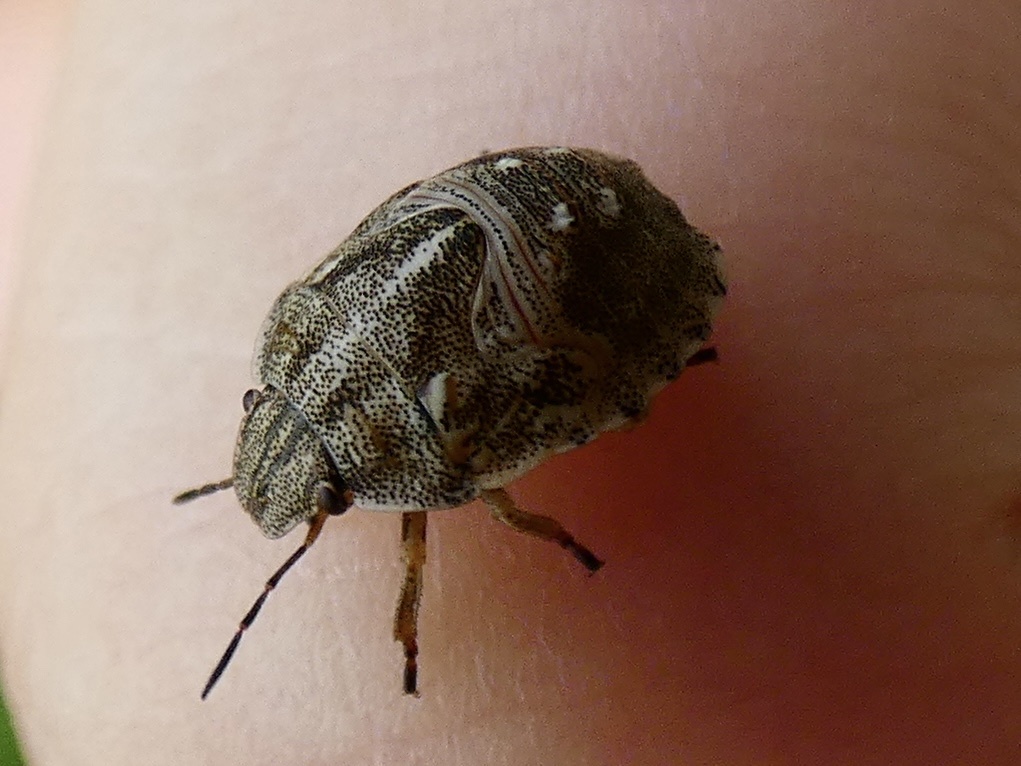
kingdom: Animalia
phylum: Arthropoda
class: Insecta
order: Hemiptera
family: Scutelleridae
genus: Eurygaster
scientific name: Eurygaster testudinaria
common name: Tortoise bug
